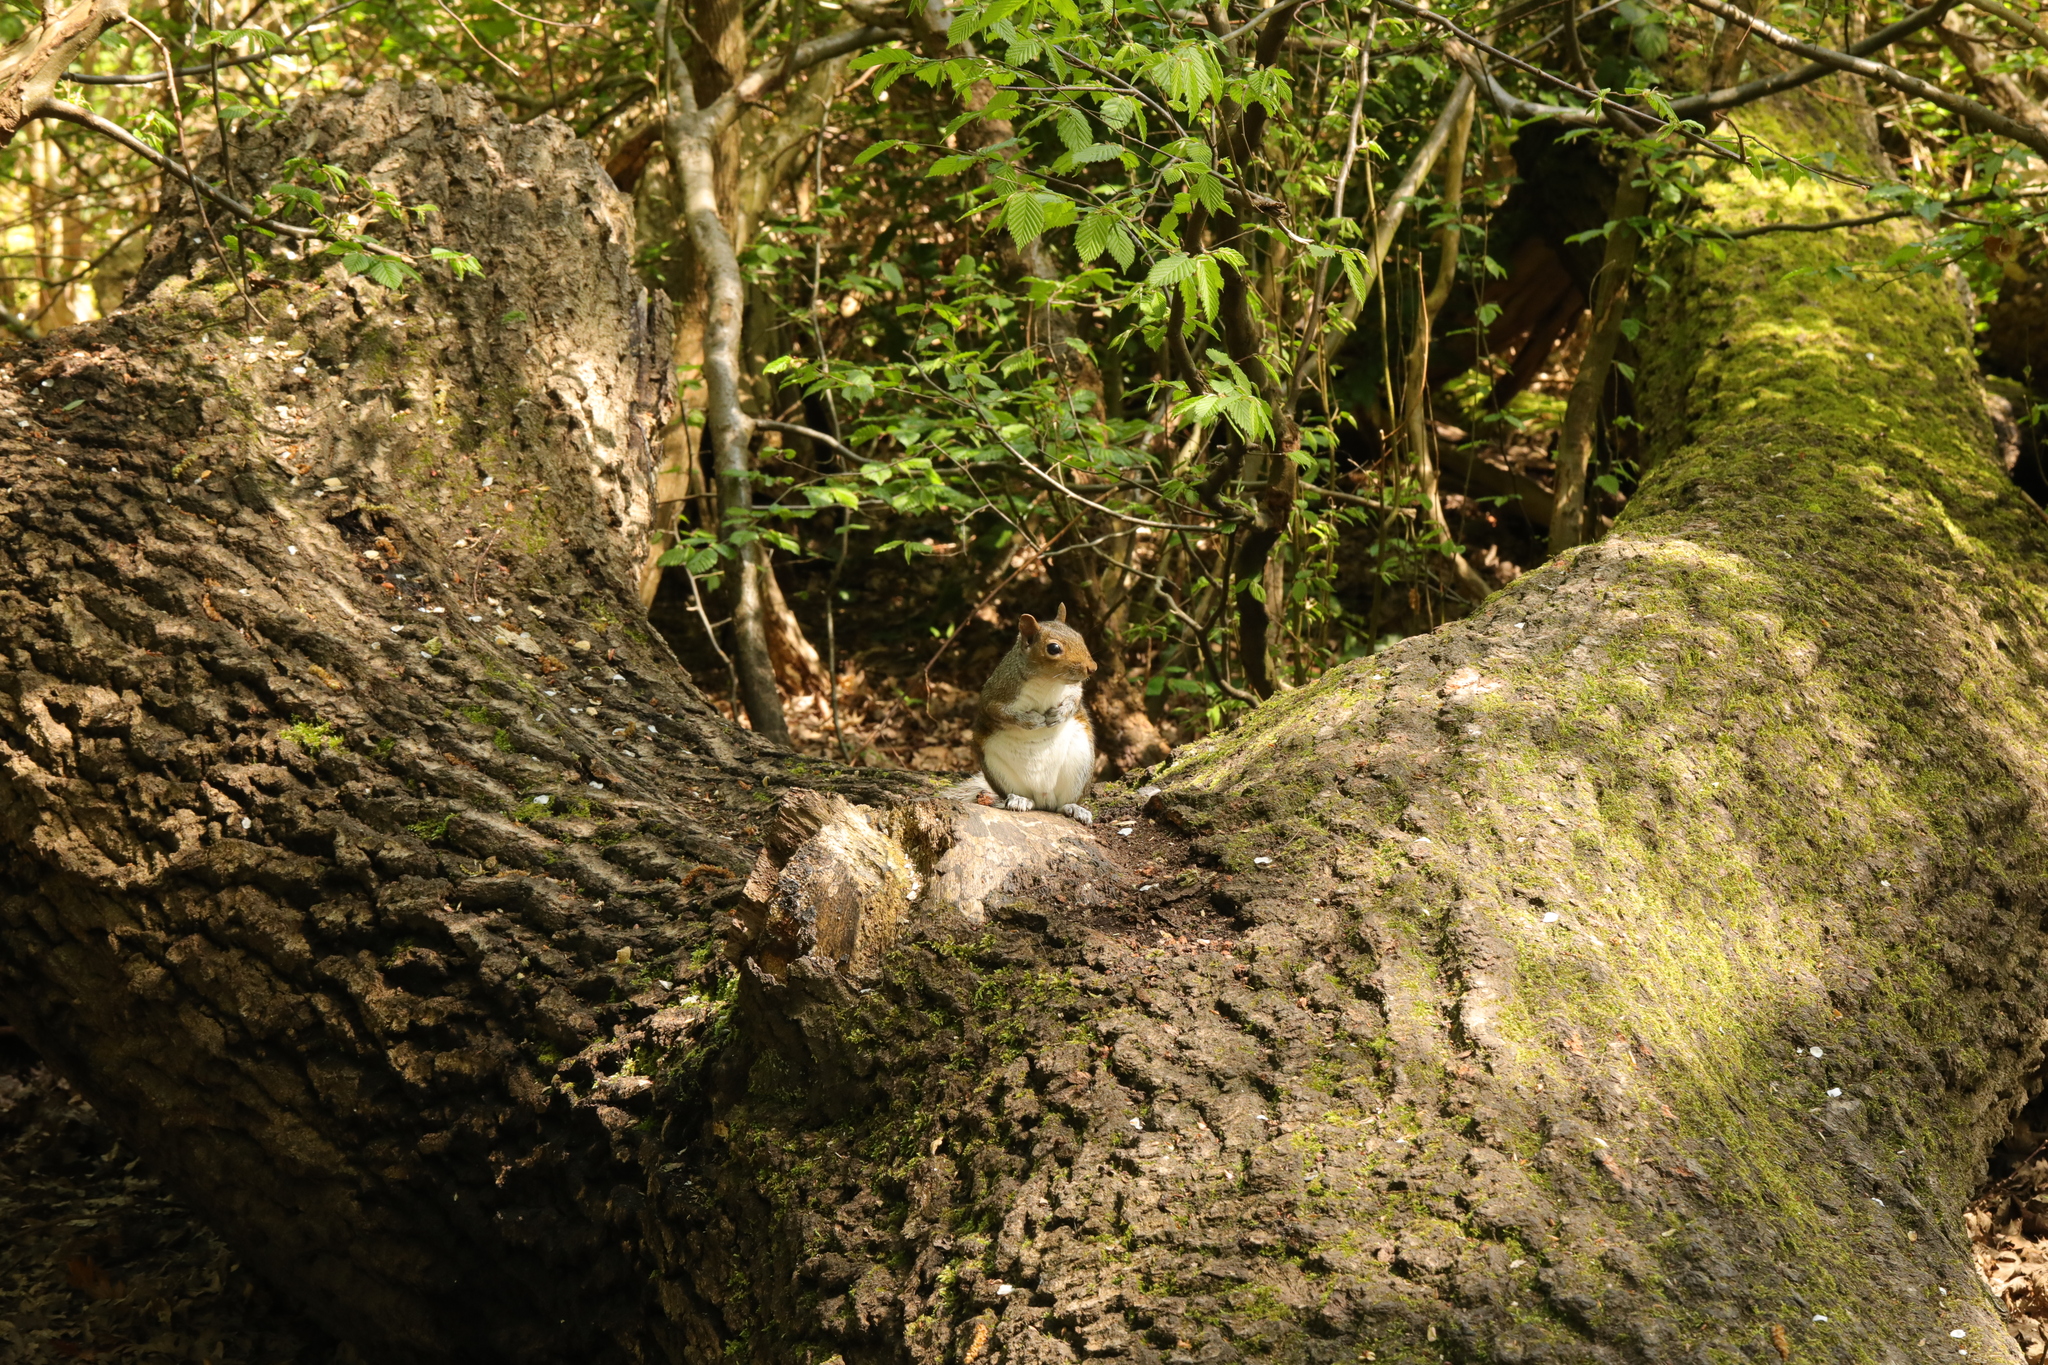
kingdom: Animalia
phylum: Chordata
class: Mammalia
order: Rodentia
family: Sciuridae
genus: Sciurus
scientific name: Sciurus carolinensis
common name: Eastern gray squirrel
